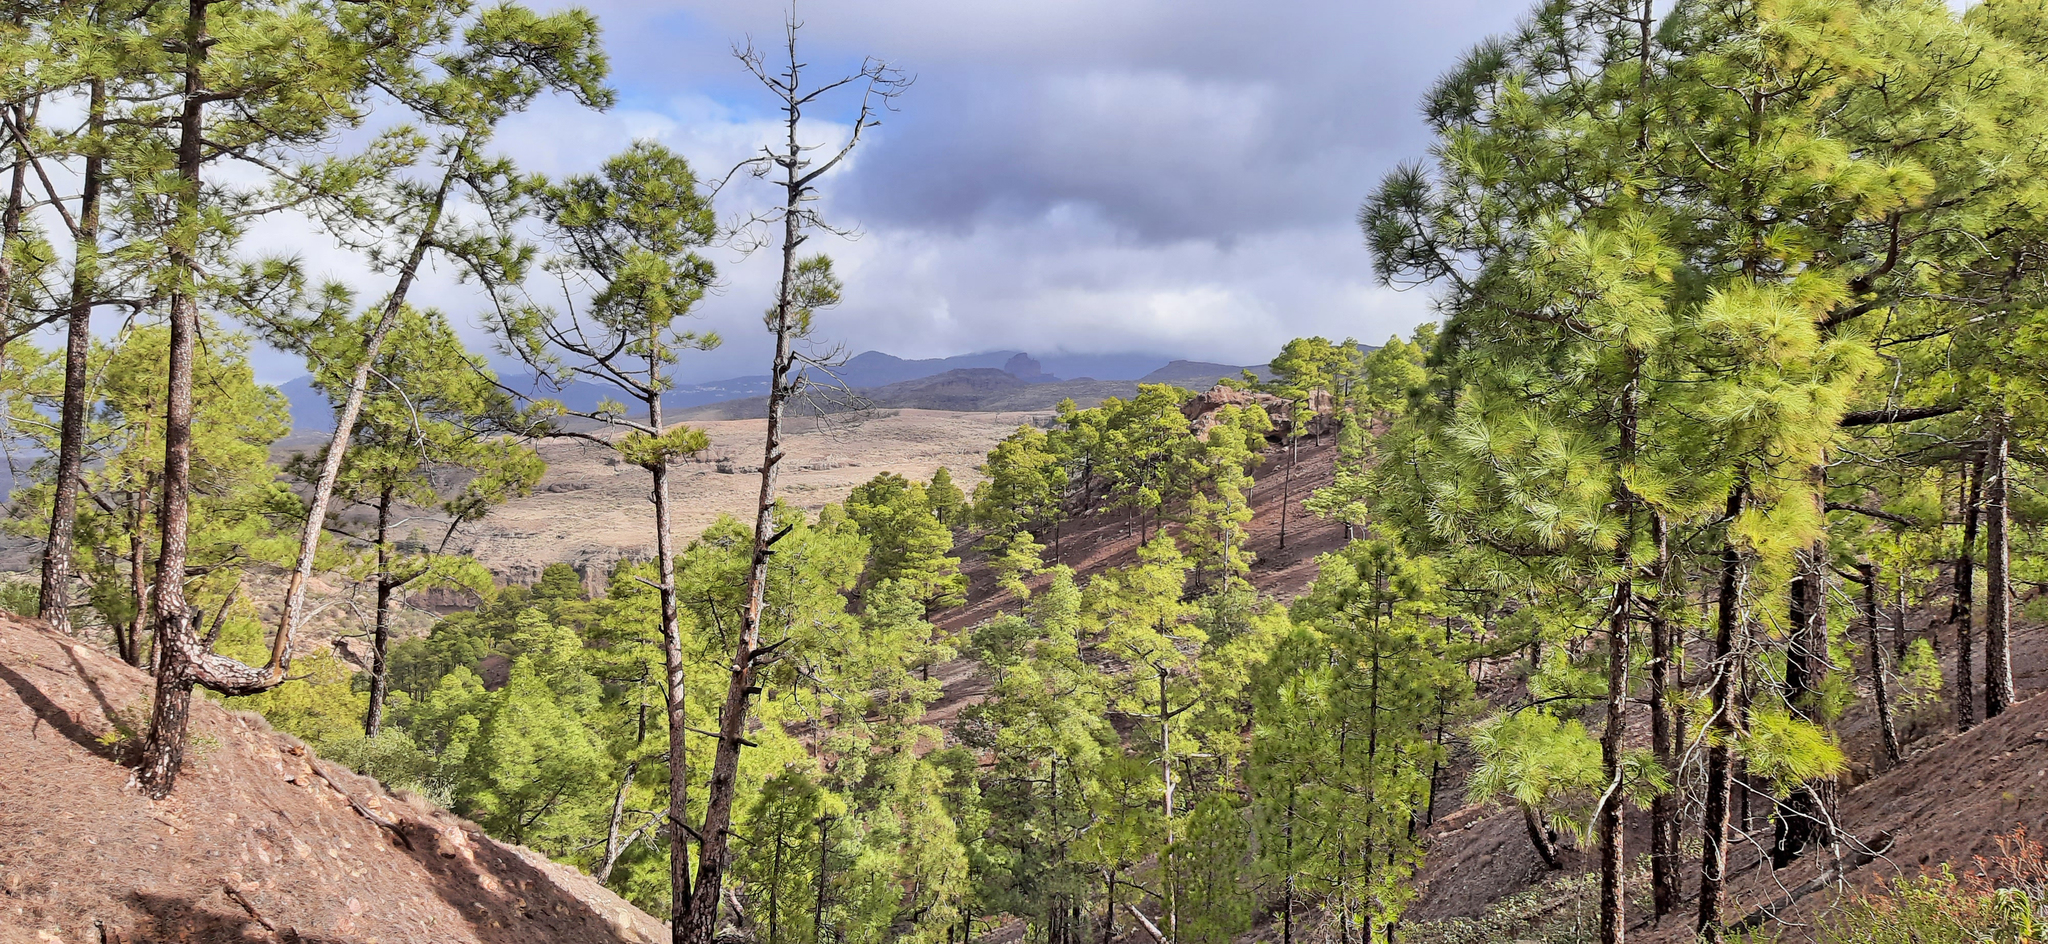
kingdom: Plantae
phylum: Tracheophyta
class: Pinopsida
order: Pinales
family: Pinaceae
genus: Pinus
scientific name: Pinus canariensis
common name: Canary islands pine
